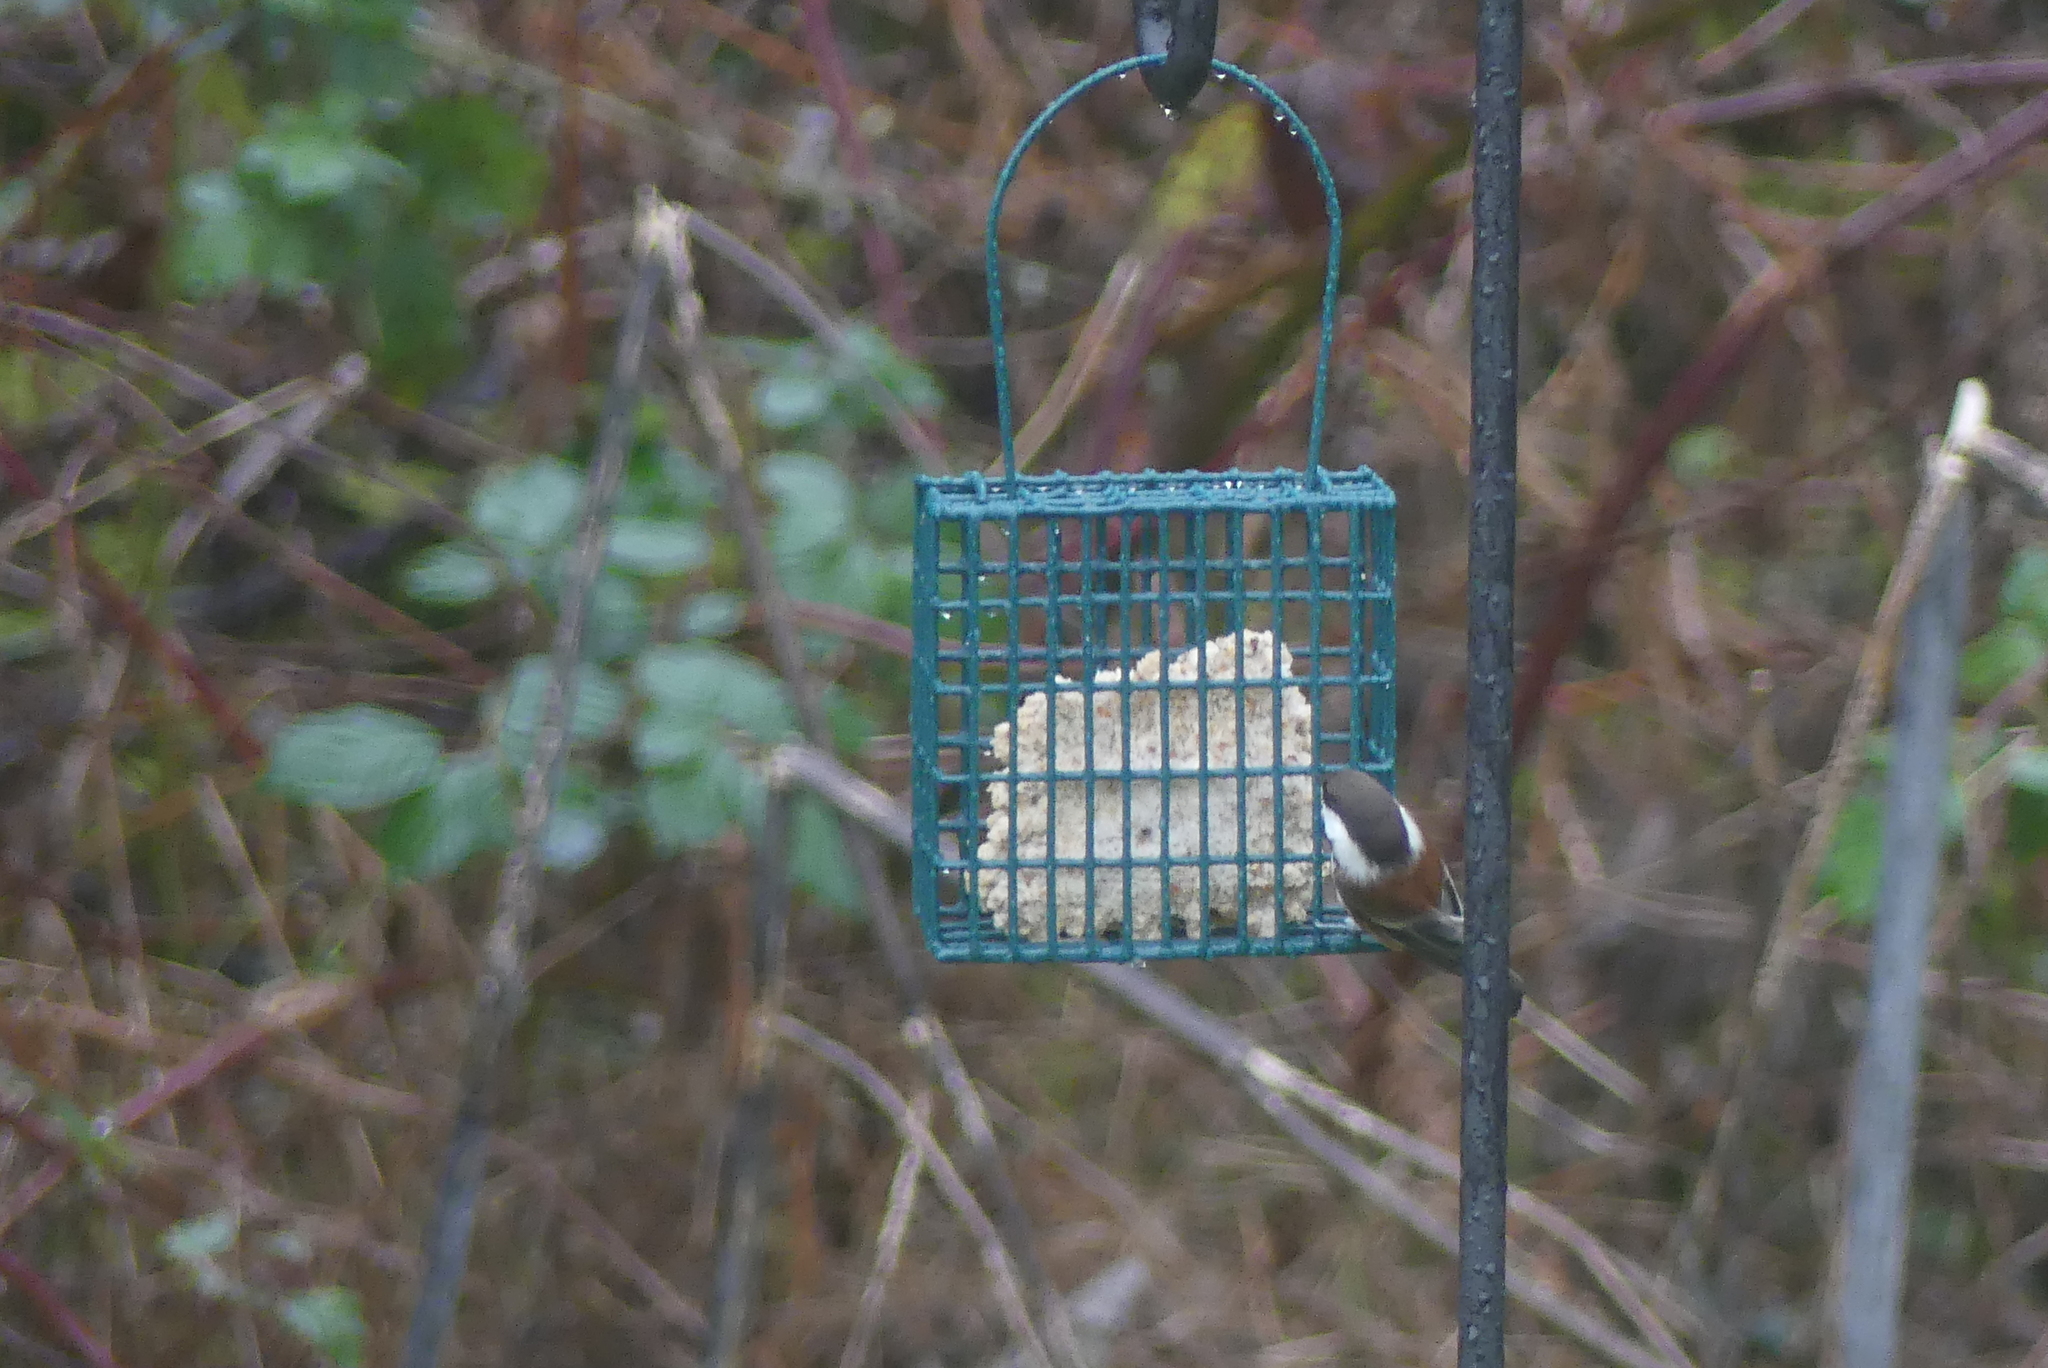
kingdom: Animalia
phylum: Chordata
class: Aves
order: Passeriformes
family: Paridae
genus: Poecile
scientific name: Poecile rufescens
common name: Chestnut-backed chickadee
